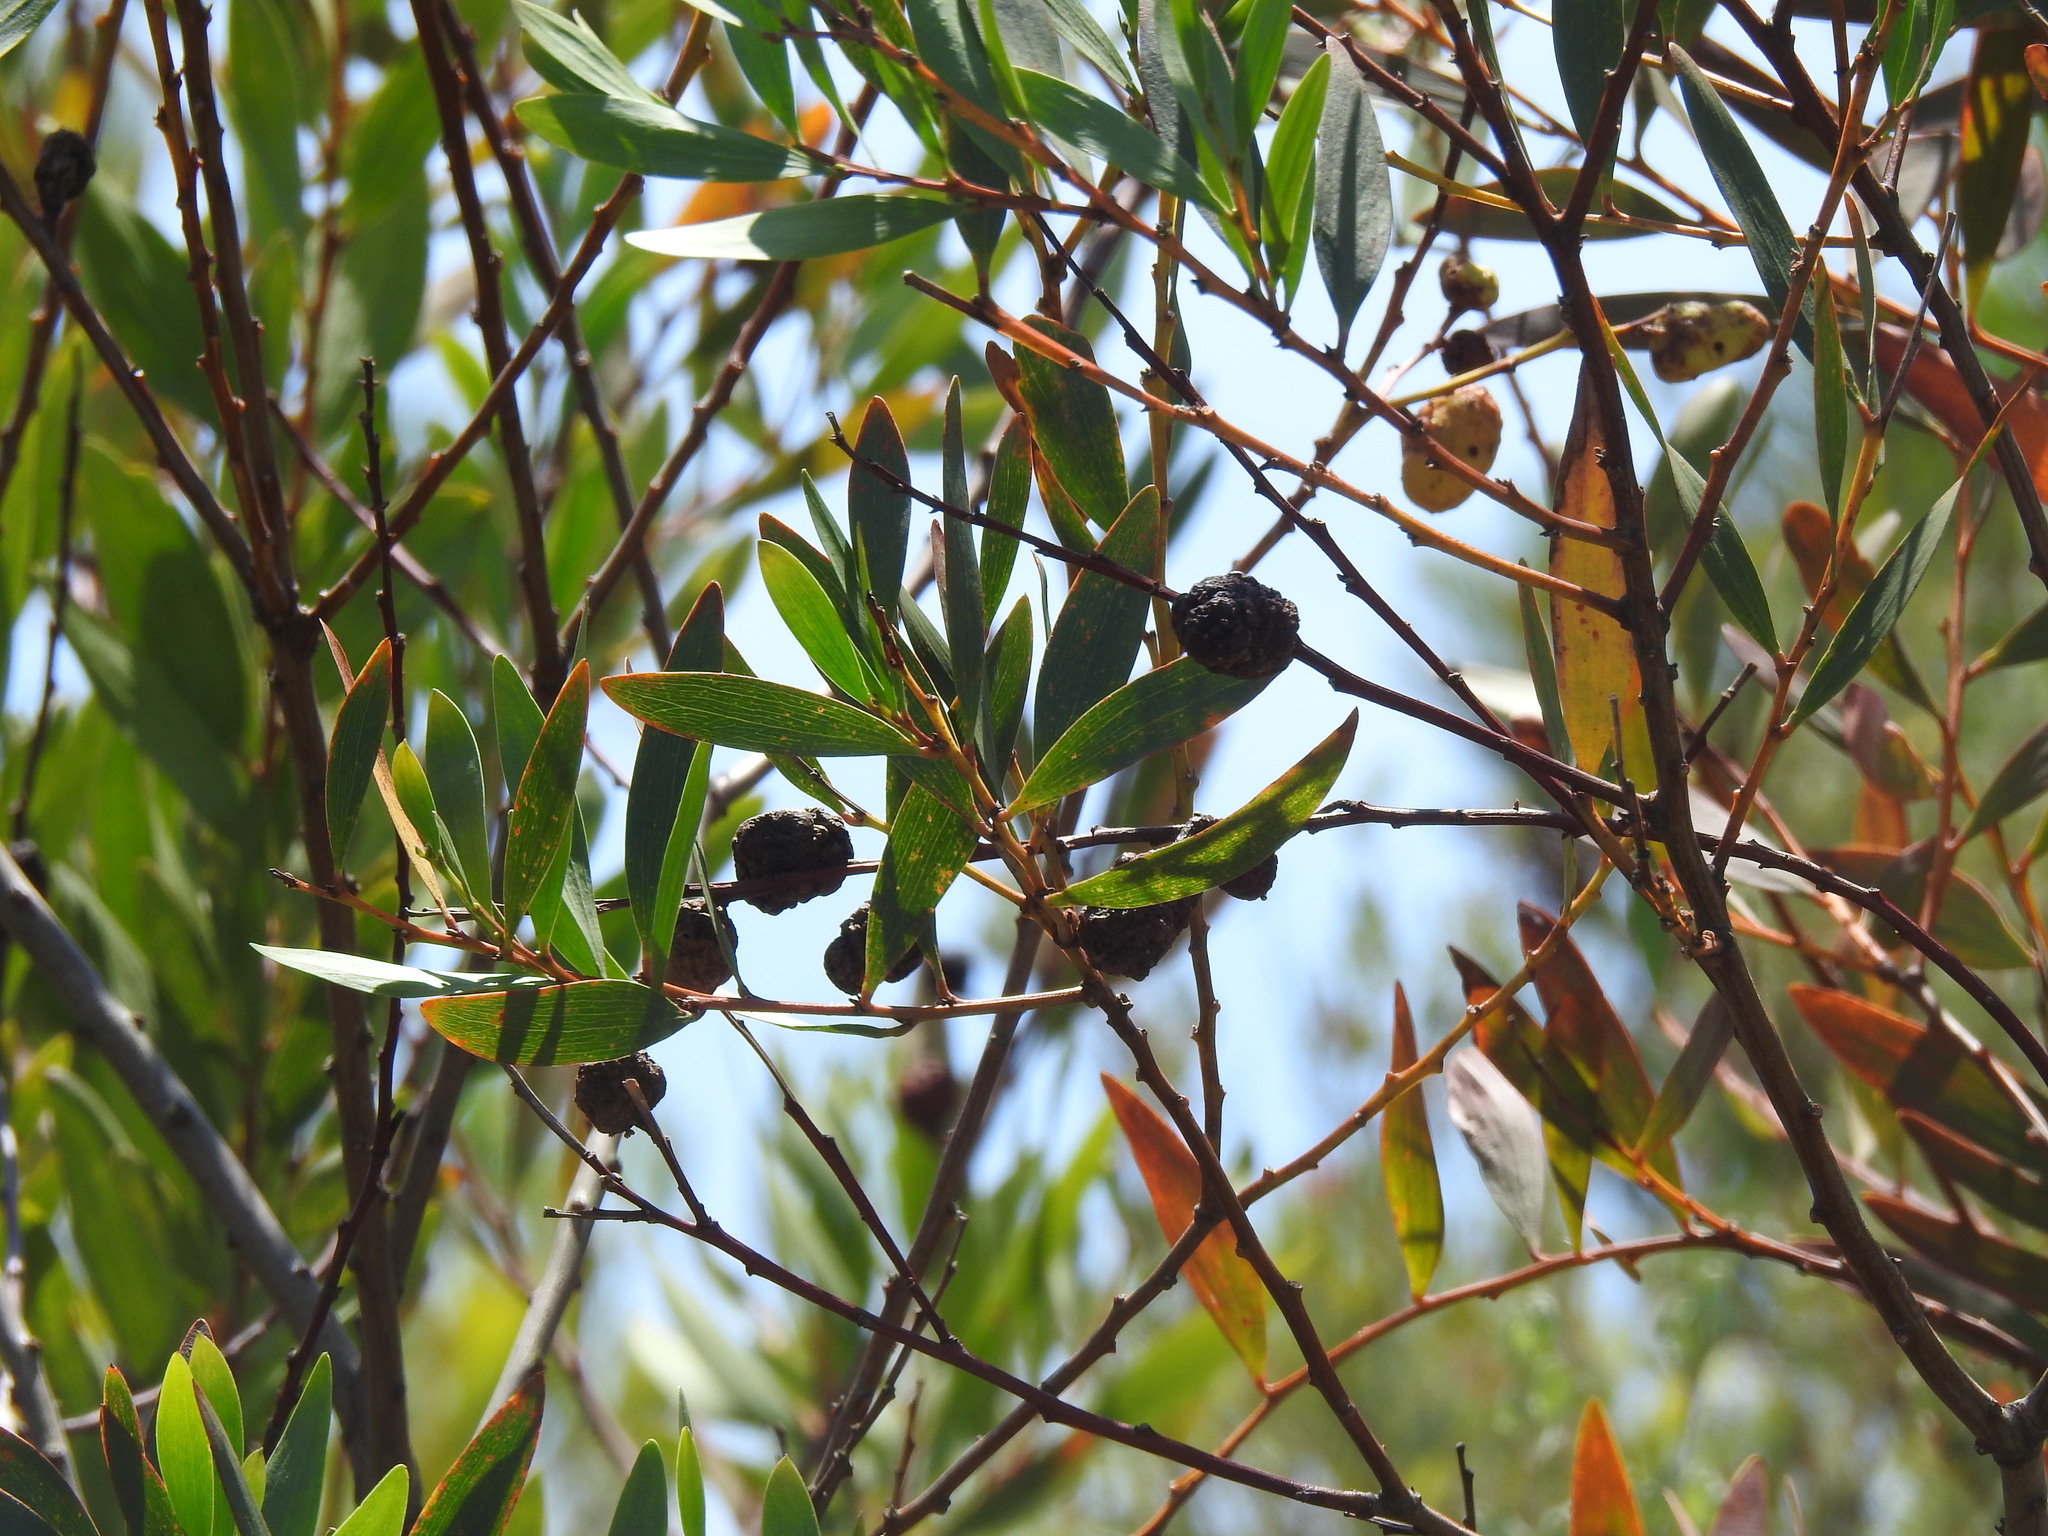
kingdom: Animalia
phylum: Arthropoda
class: Insecta
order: Hymenoptera
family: Pteromalidae
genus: Trichilogaster
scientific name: Trichilogaster acaciaelongifoliae
